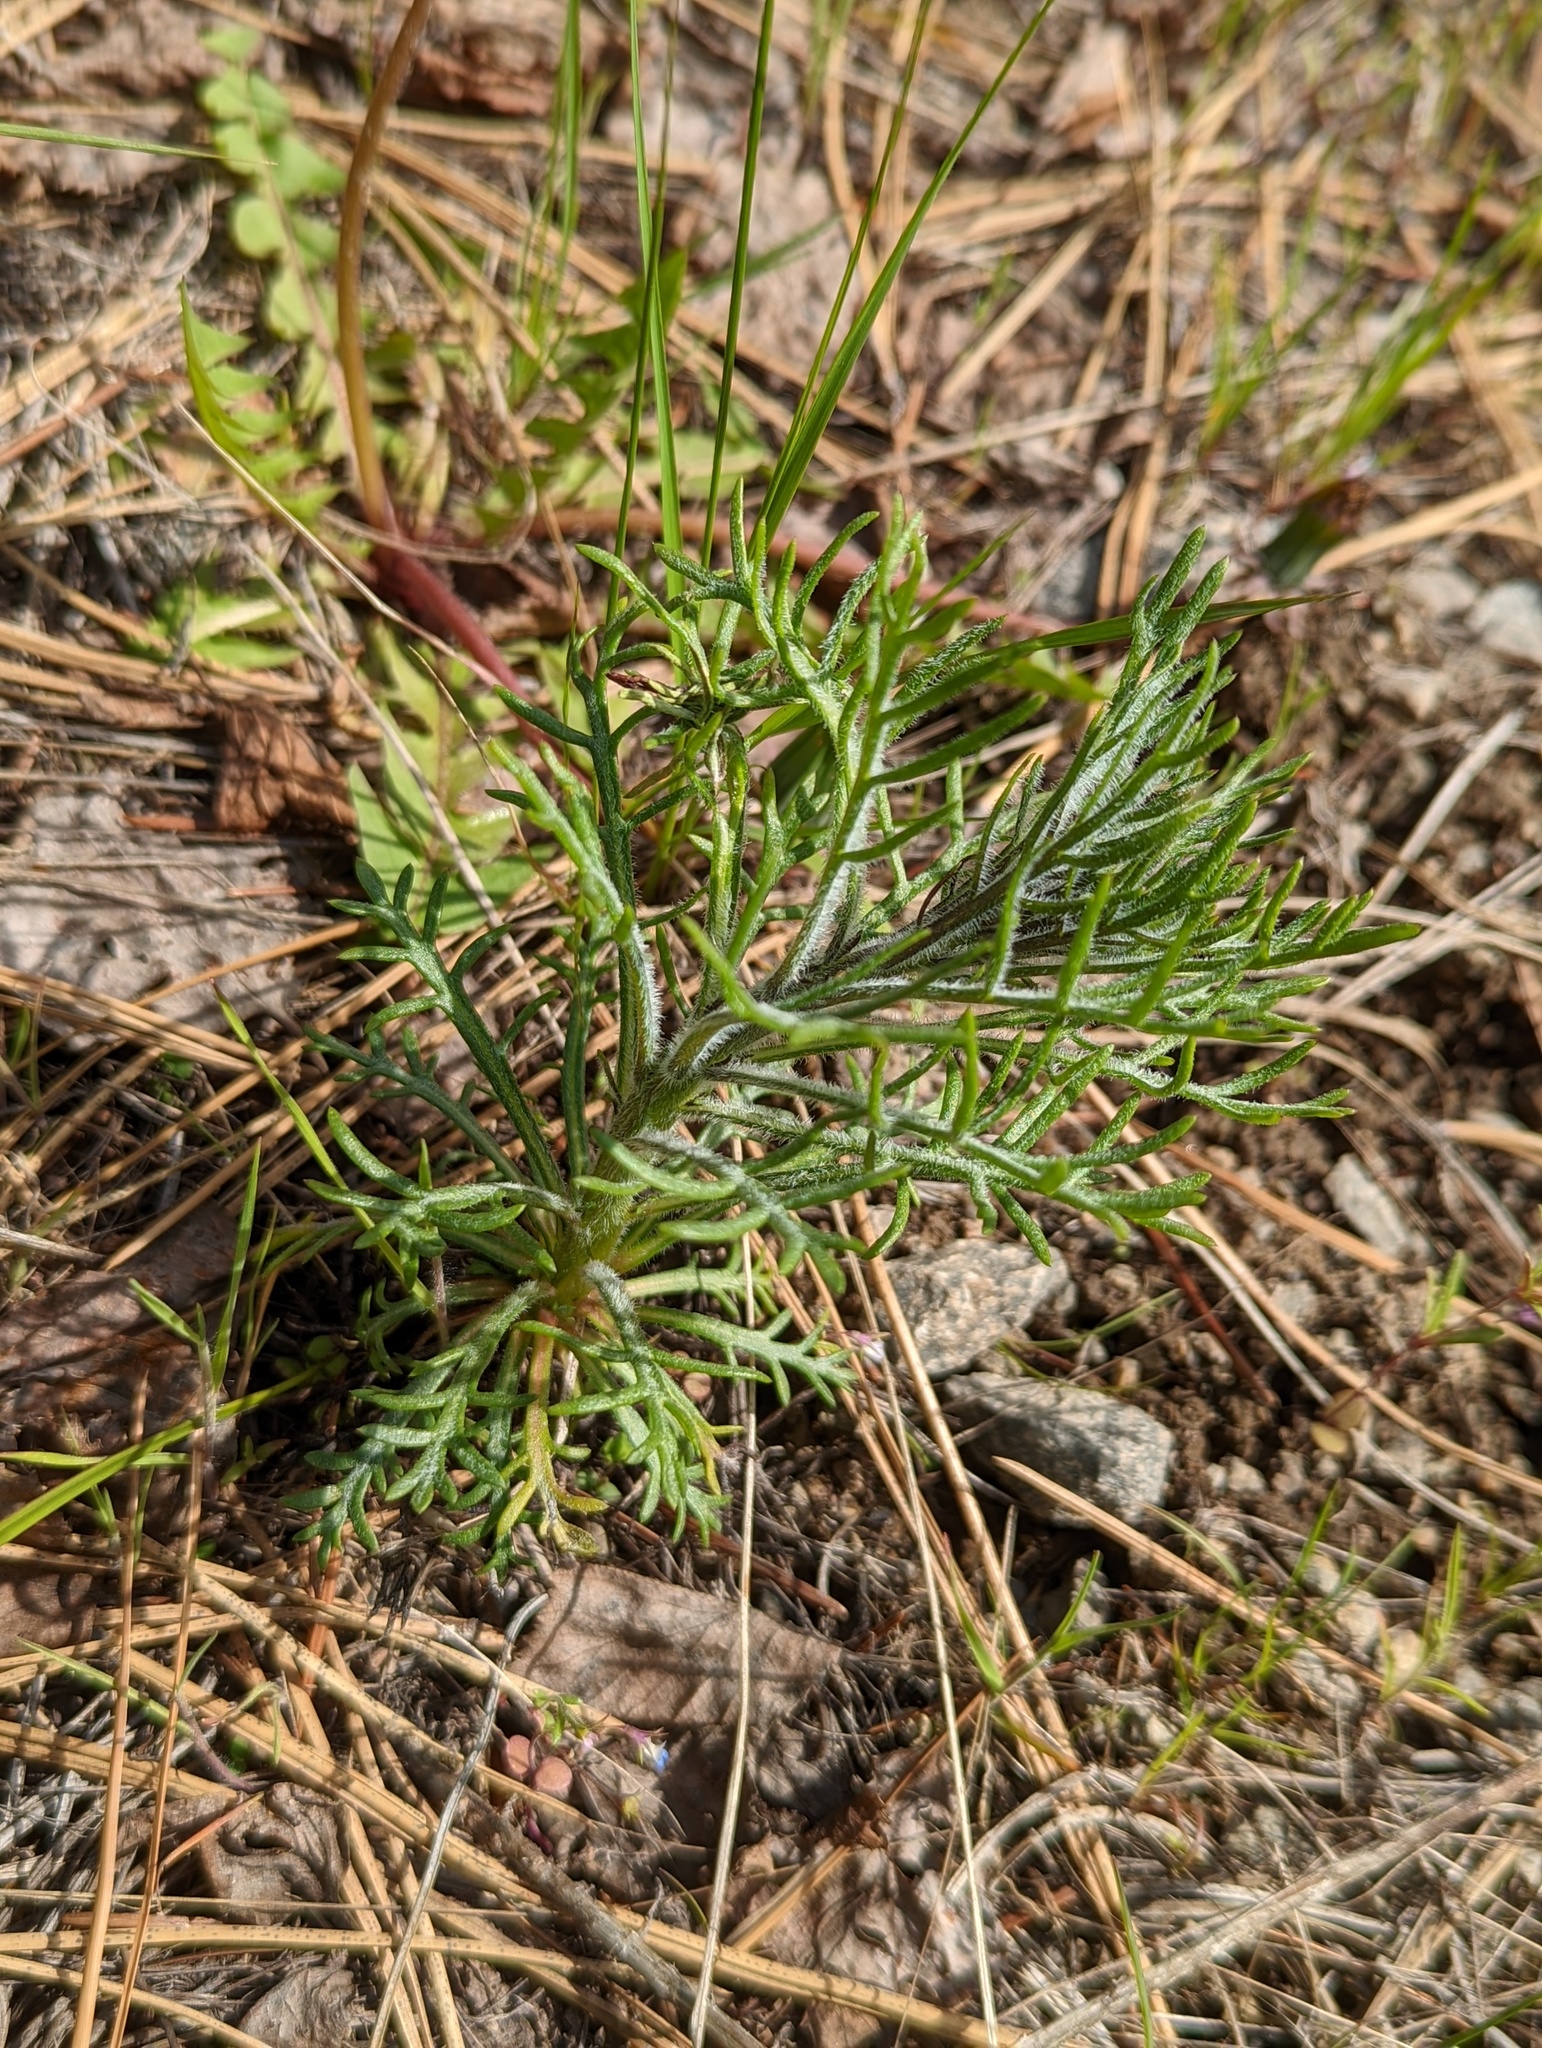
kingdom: Plantae
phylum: Tracheophyta
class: Magnoliopsida
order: Ericales
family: Polemoniaceae
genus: Ipomopsis
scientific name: Ipomopsis aggregata
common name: Scarlet gilia
